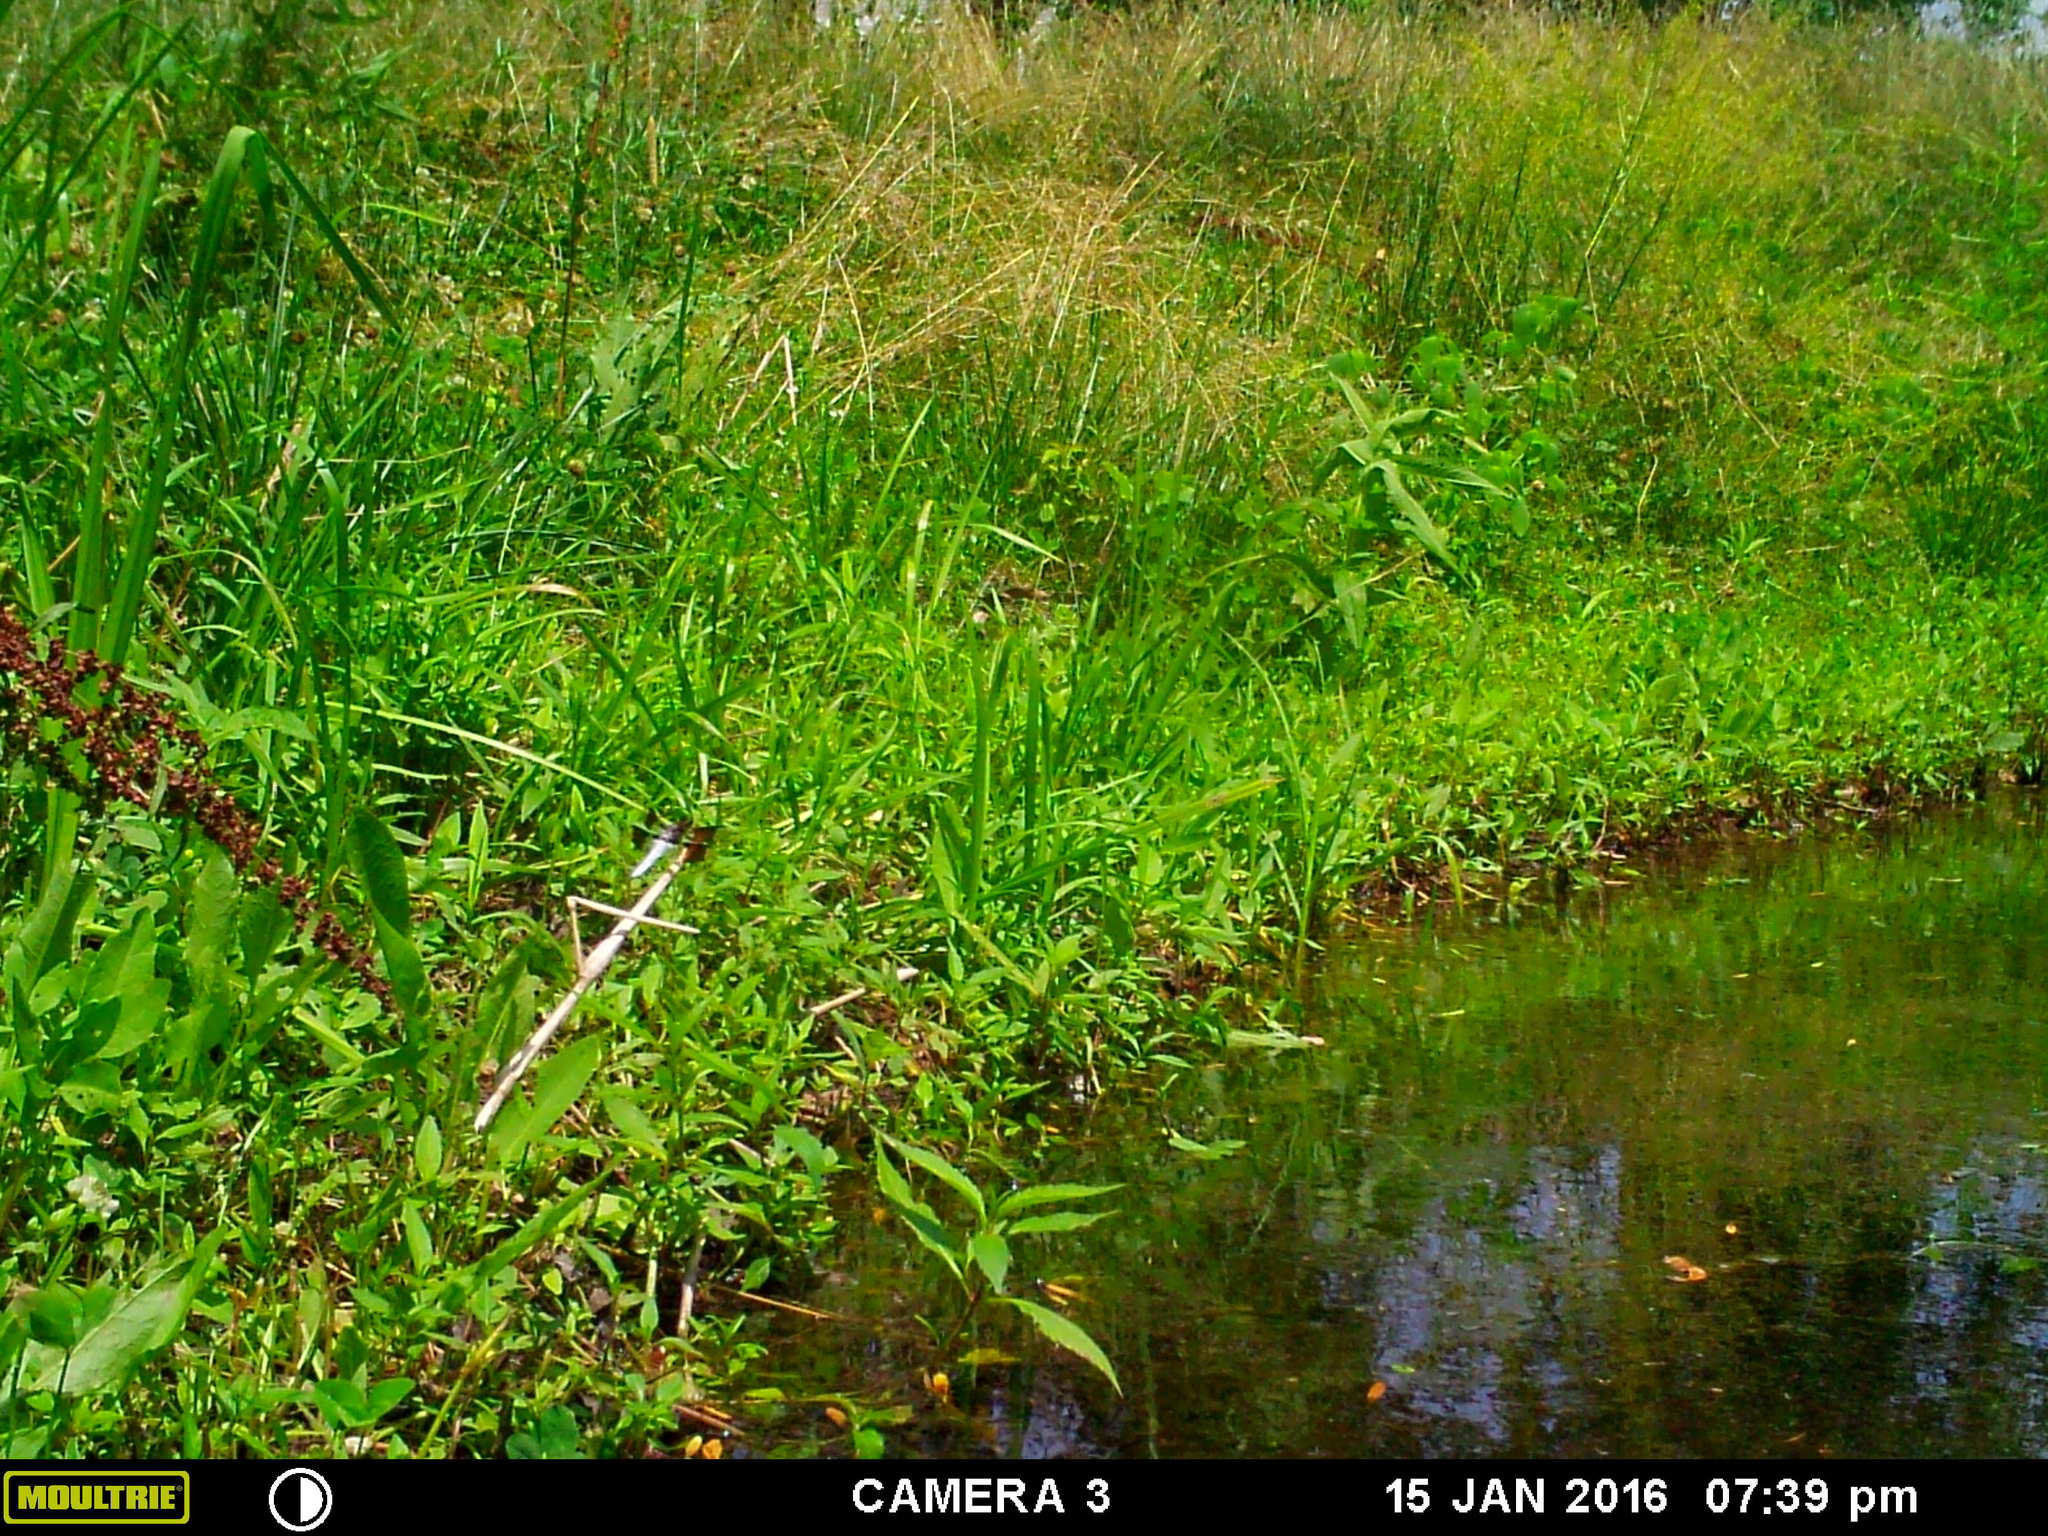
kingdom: Animalia
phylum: Arthropoda
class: Insecta
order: Odonata
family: Libellulidae
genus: Plathemis
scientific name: Plathemis lydia
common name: Common whitetail
